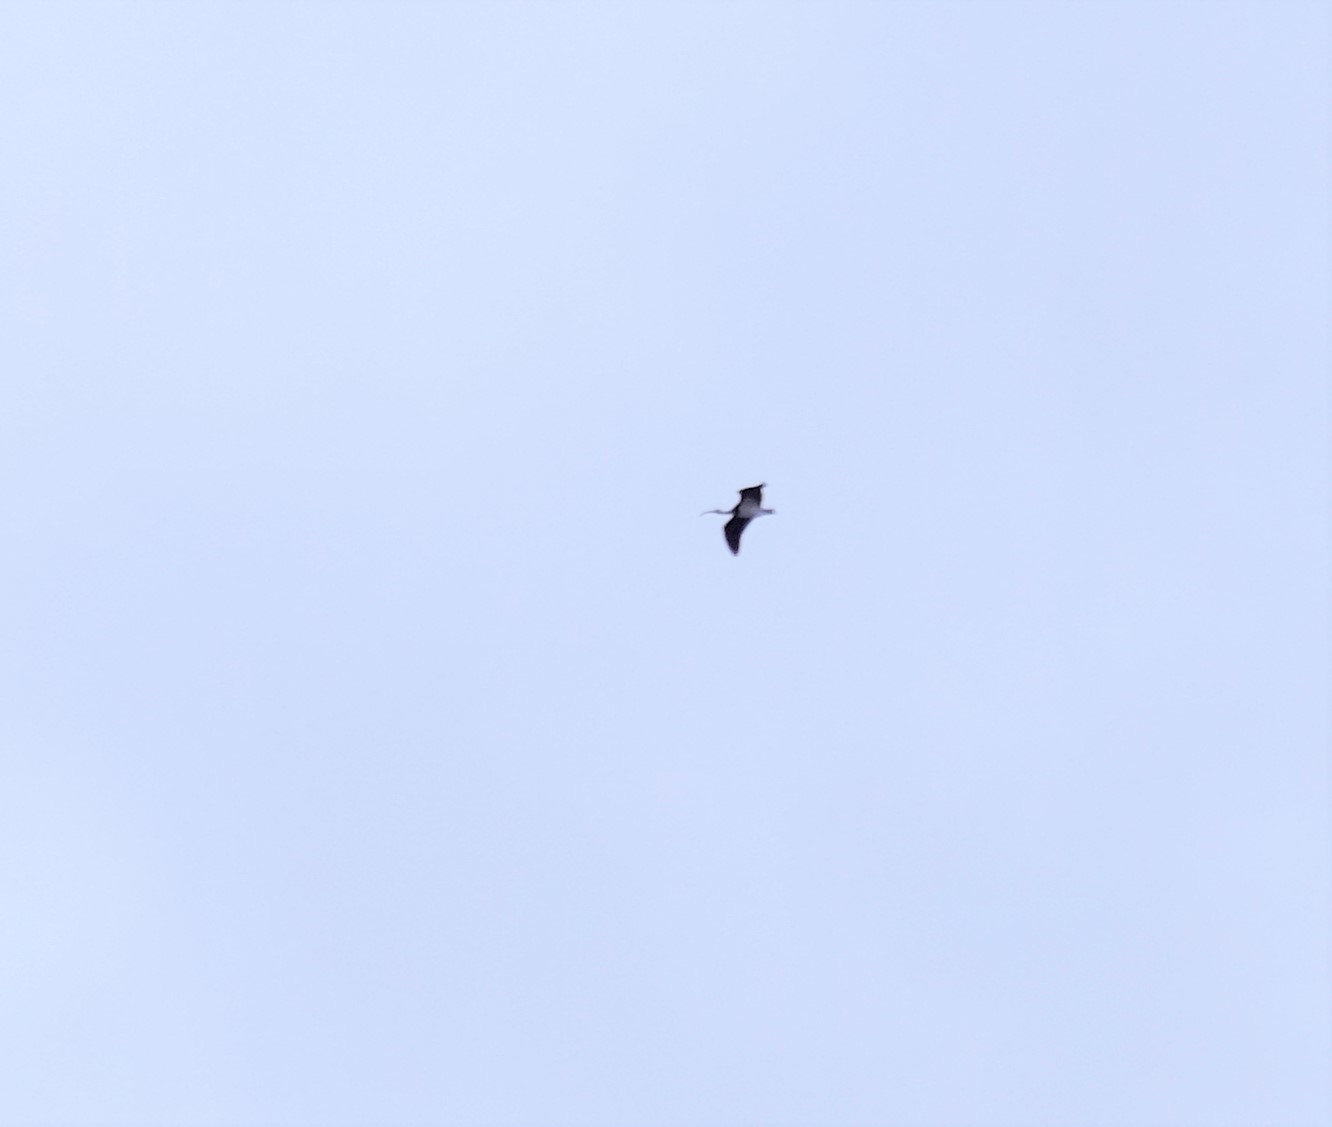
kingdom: Animalia
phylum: Chordata
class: Aves
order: Pelecaniformes
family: Threskiornithidae
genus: Threskiornis
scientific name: Threskiornis spinicollis
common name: Straw-necked ibis
